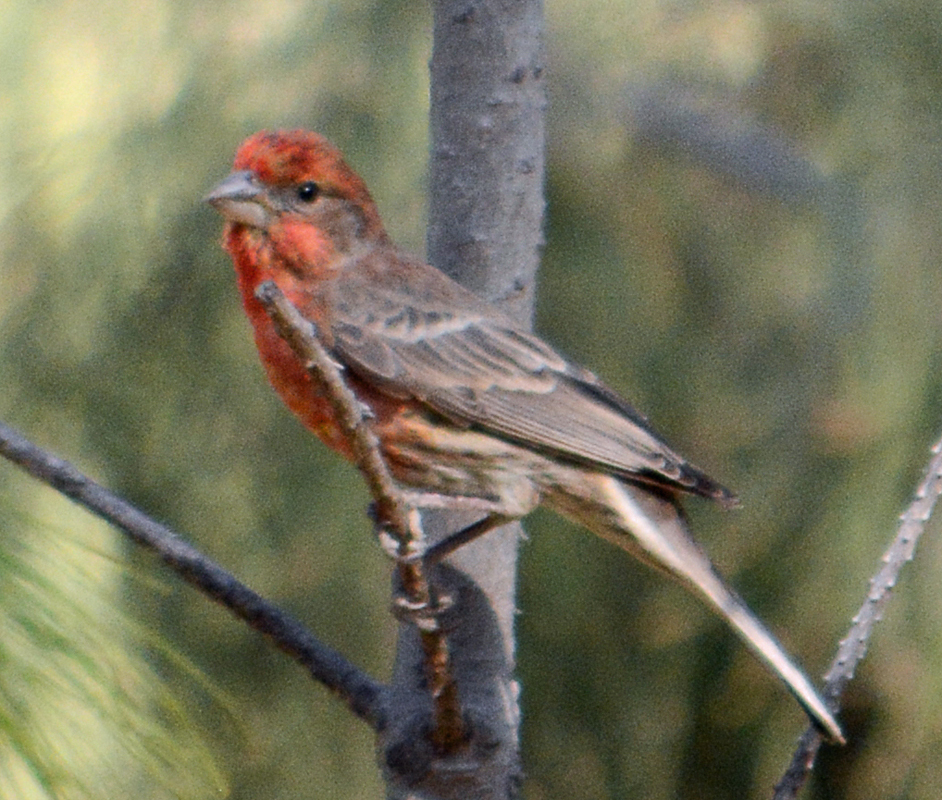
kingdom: Animalia
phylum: Chordata
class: Aves
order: Passeriformes
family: Fringillidae
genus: Haemorhous
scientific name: Haemorhous mexicanus
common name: House finch
